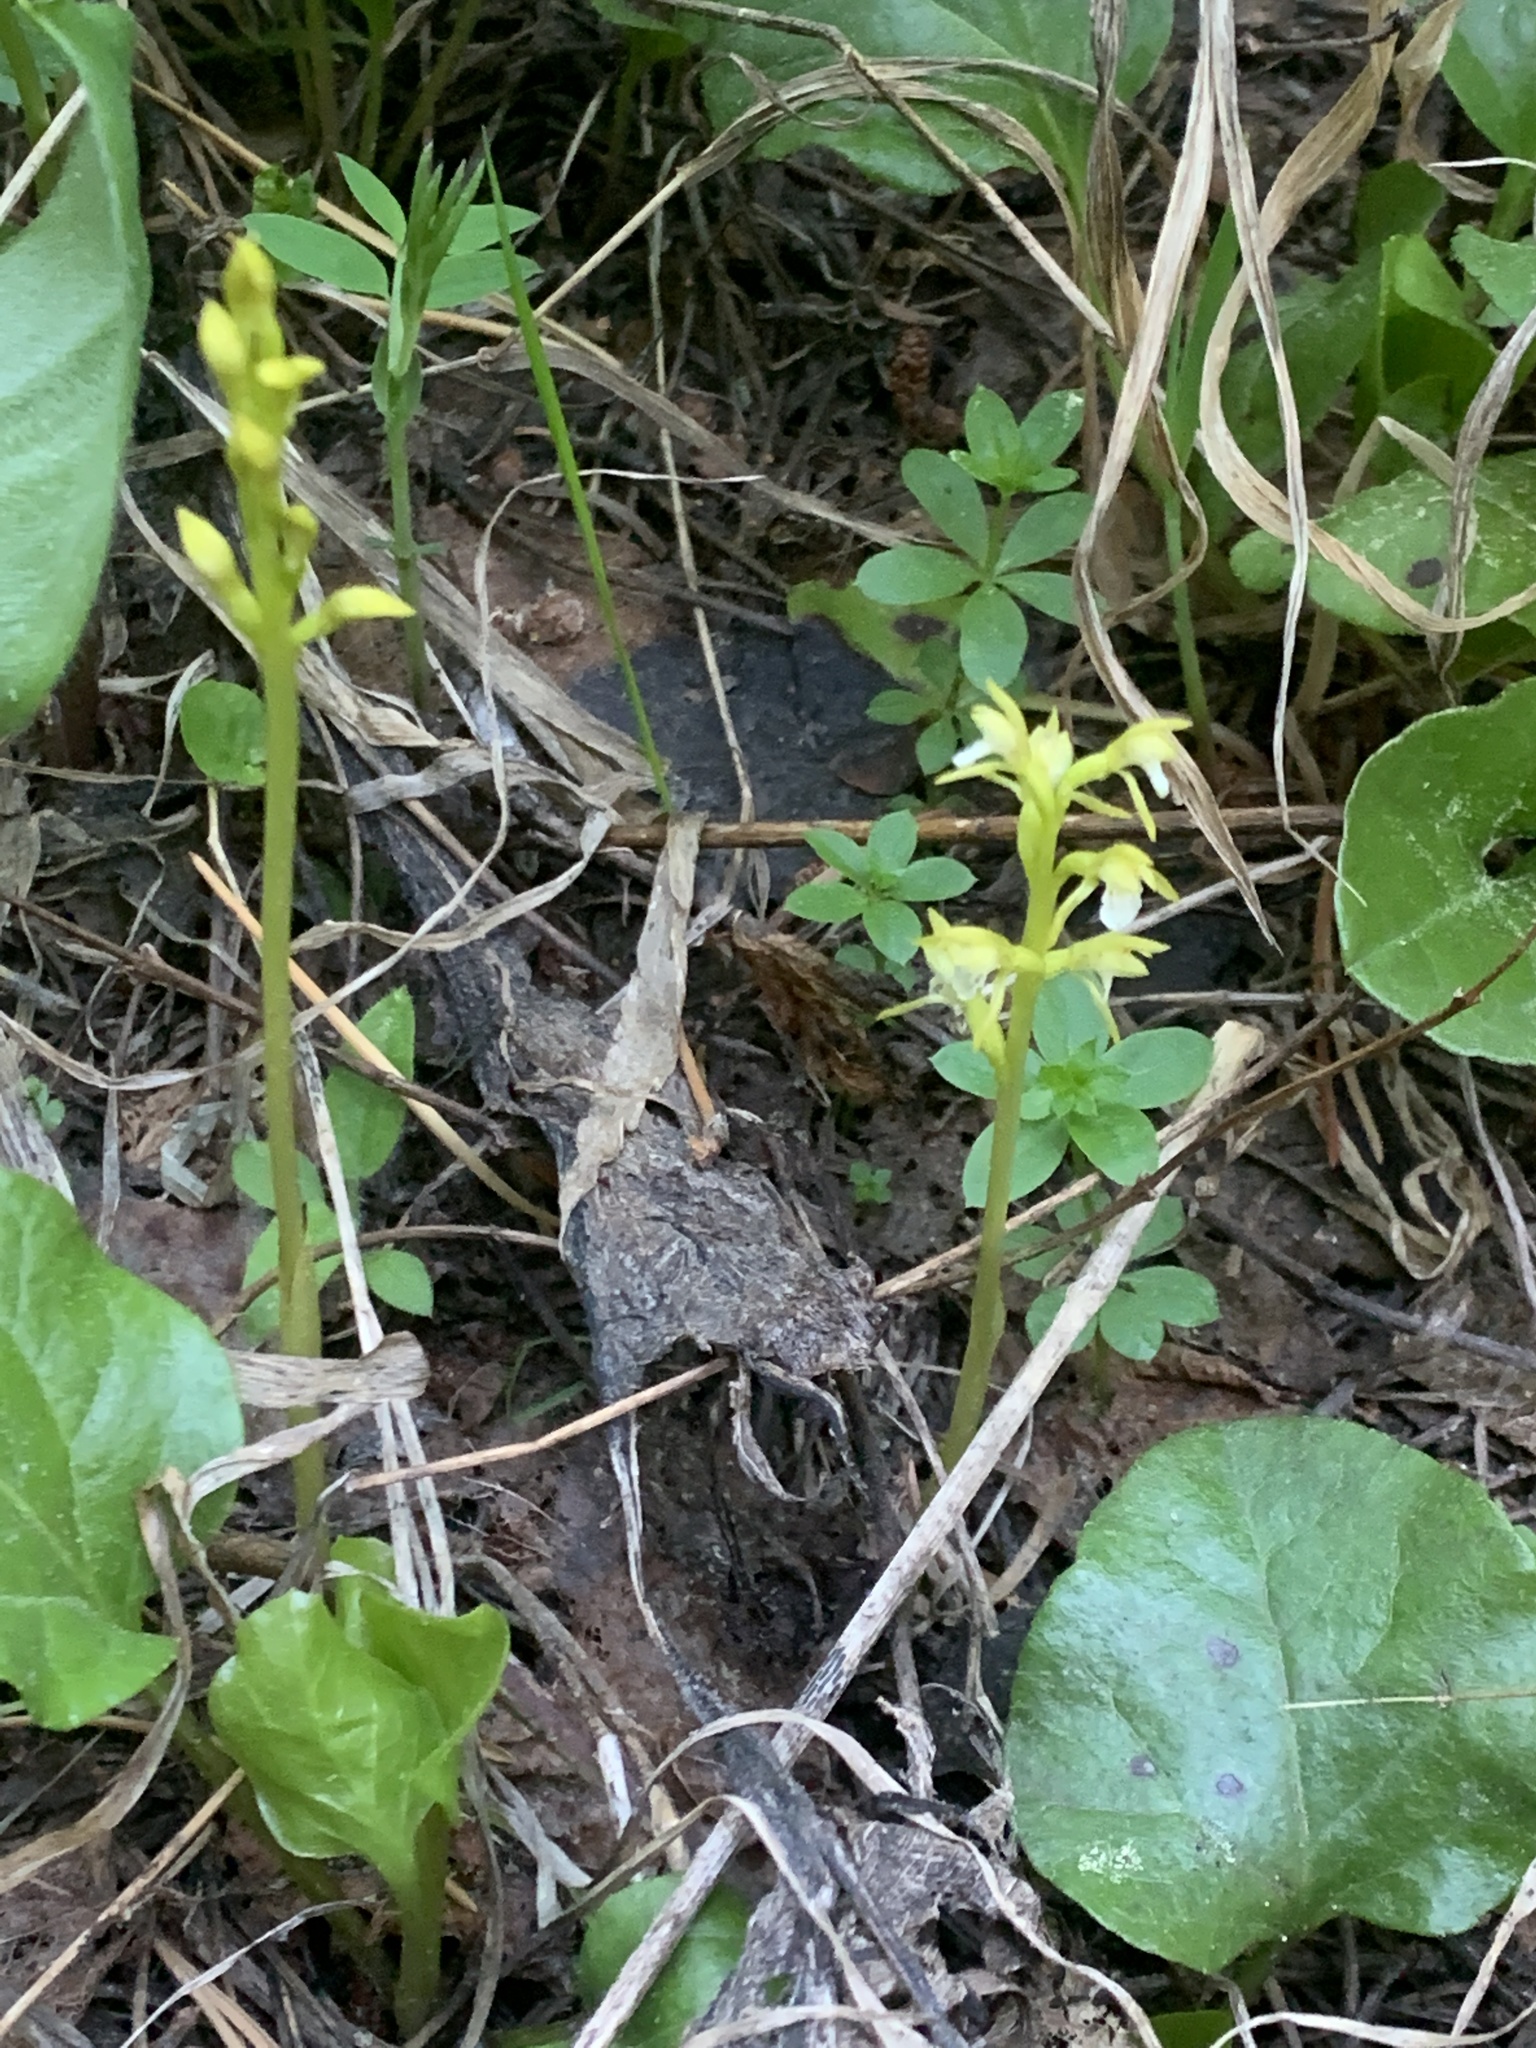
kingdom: Plantae
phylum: Tracheophyta
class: Liliopsida
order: Asparagales
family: Orchidaceae
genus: Corallorhiza
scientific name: Corallorhiza trifida
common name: Yellow coralroot
